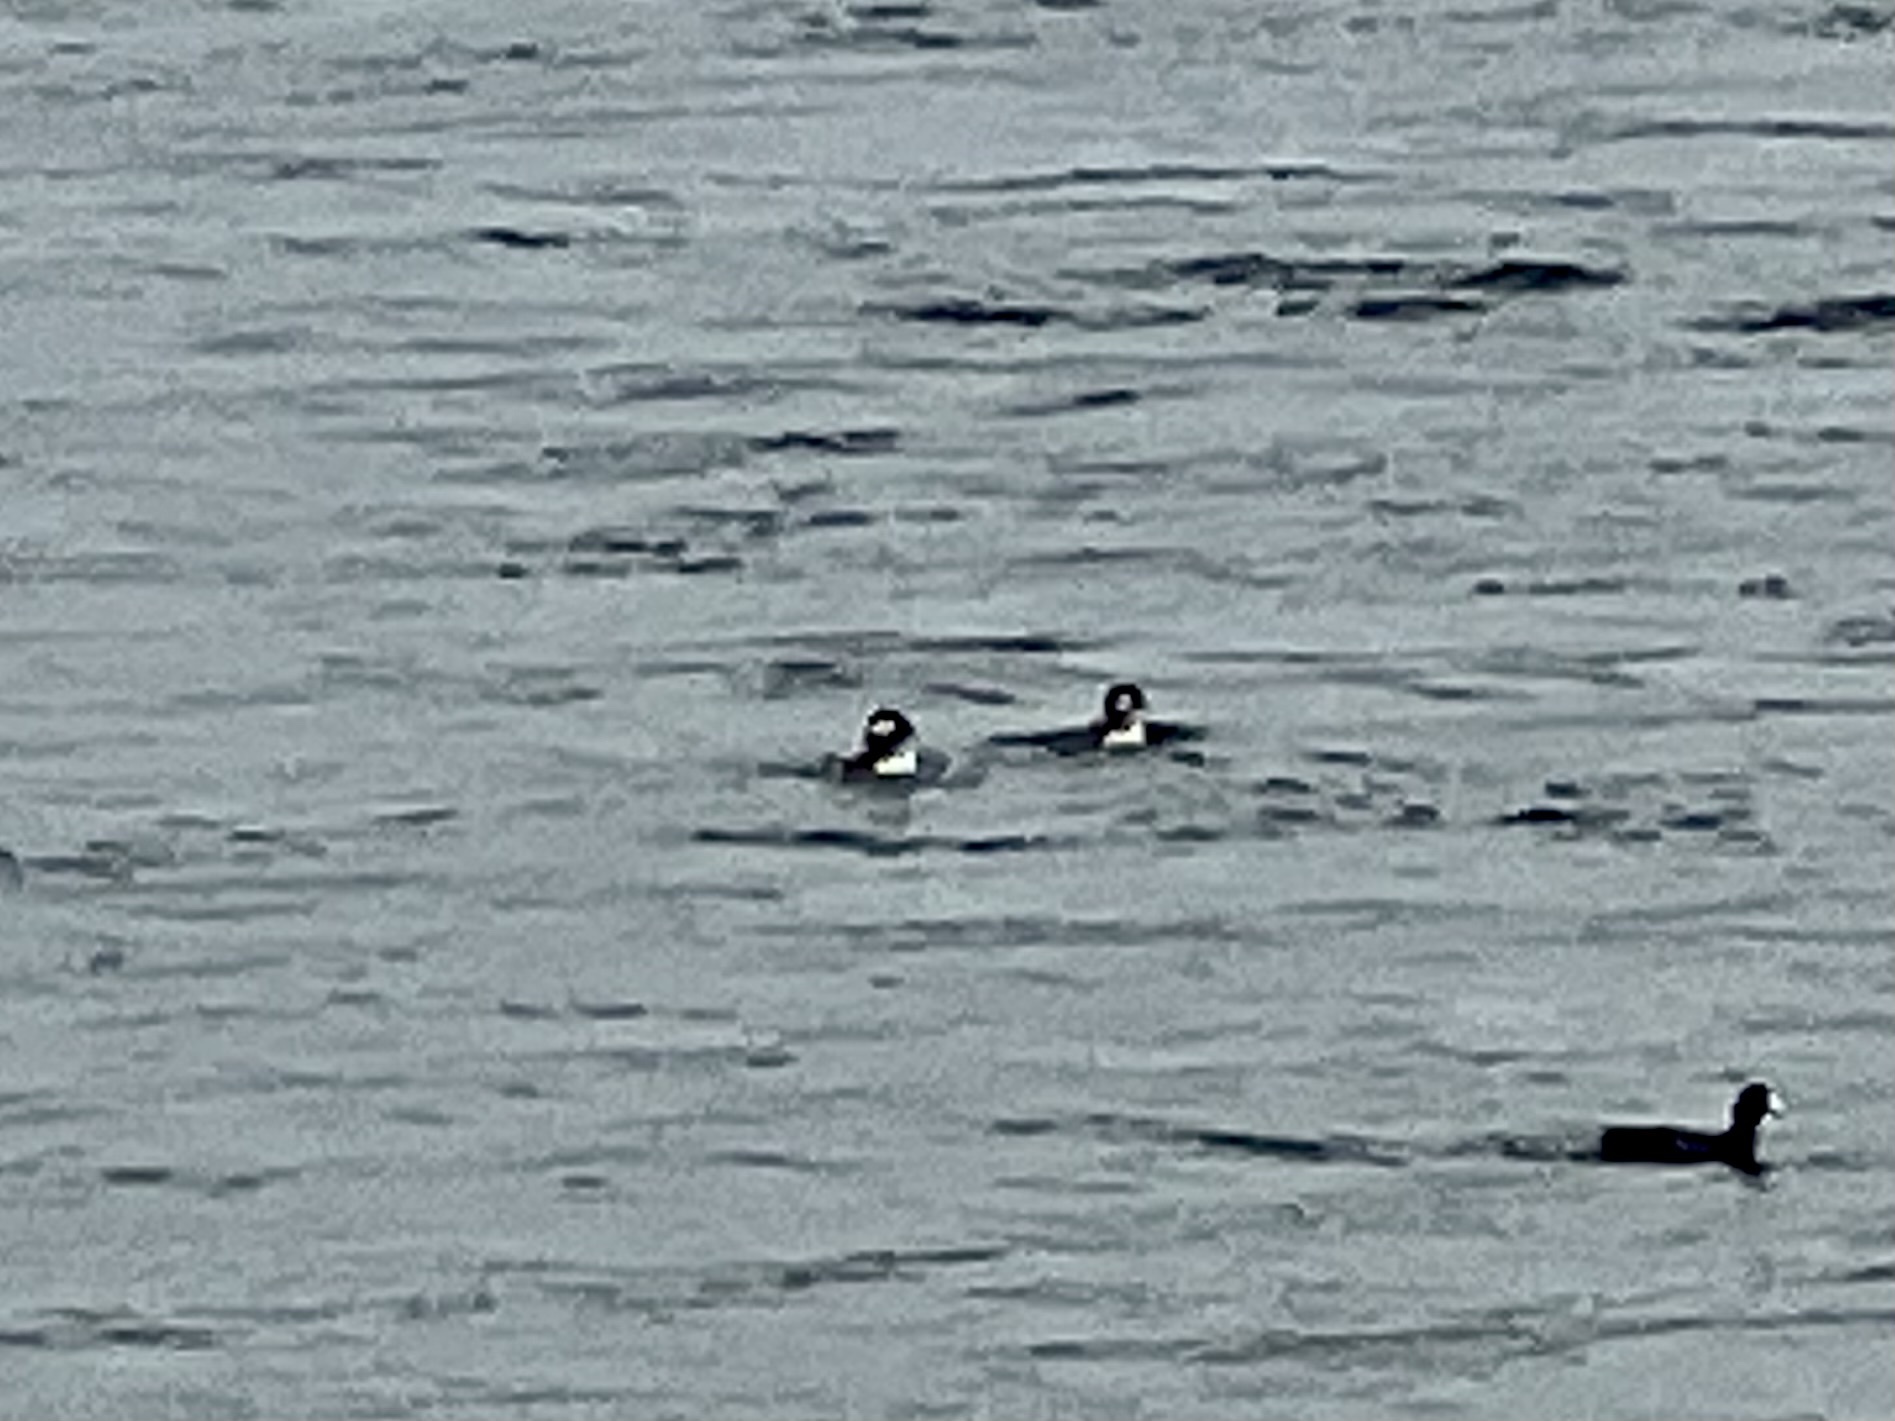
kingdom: Animalia
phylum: Chordata
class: Aves
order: Anseriformes
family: Anatidae
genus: Bucephala
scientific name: Bucephala albeola
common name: Bufflehead
